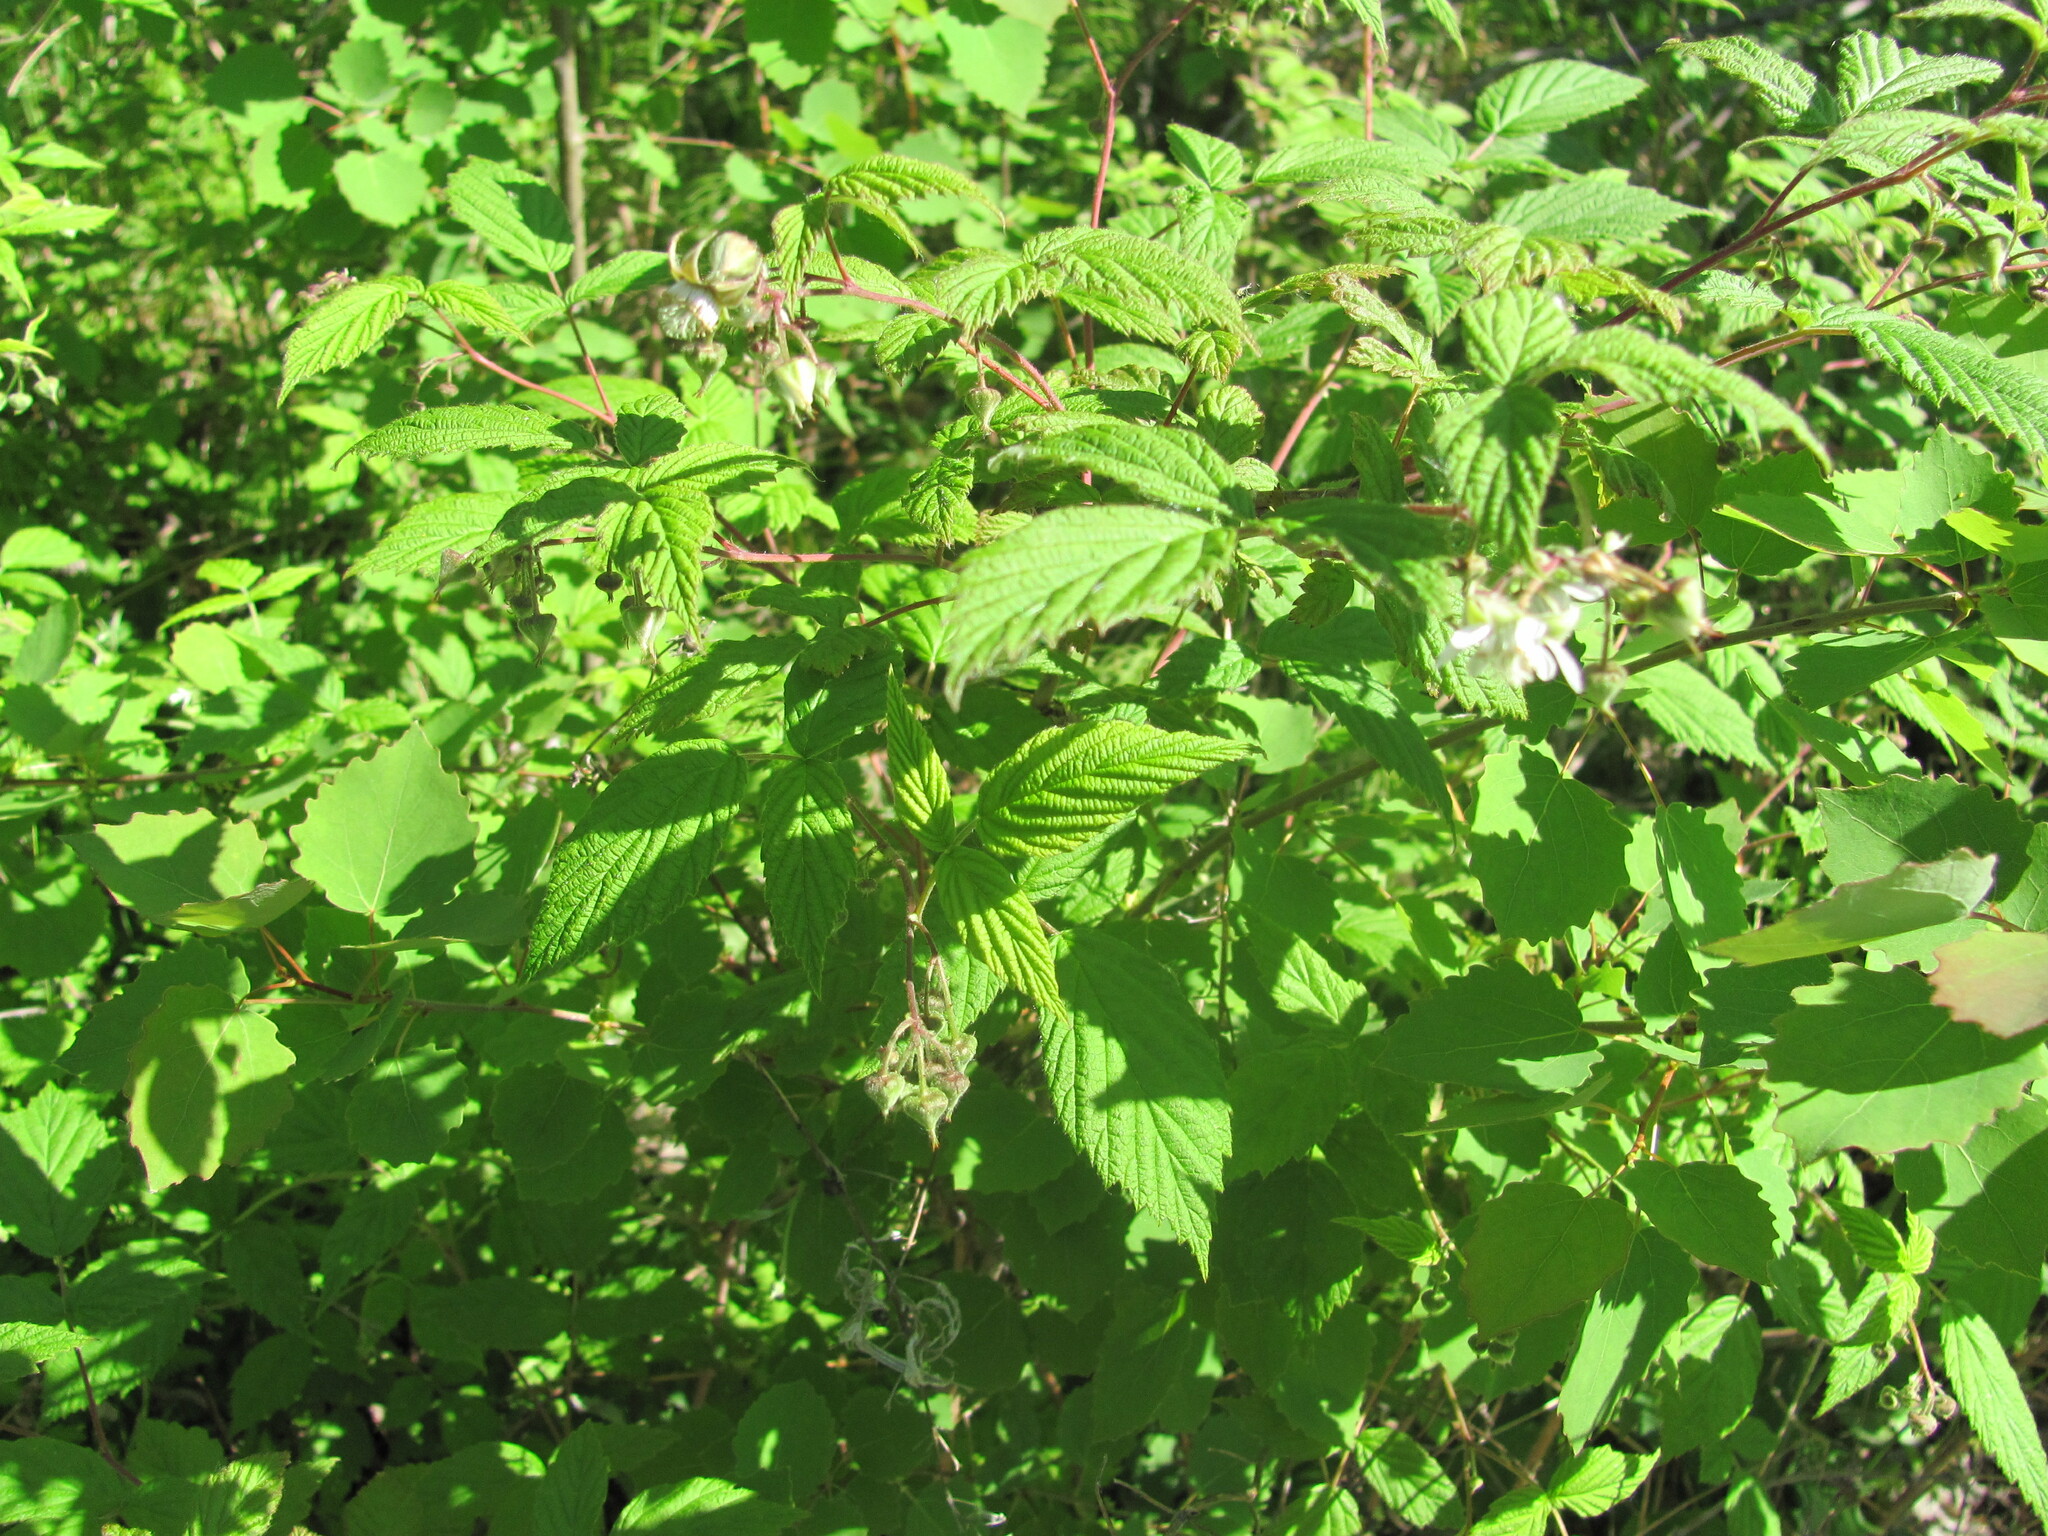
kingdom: Plantae
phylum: Tracheophyta
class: Magnoliopsida
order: Rosales
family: Rosaceae
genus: Rubus
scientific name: Rubus idaeus
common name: Raspberry
